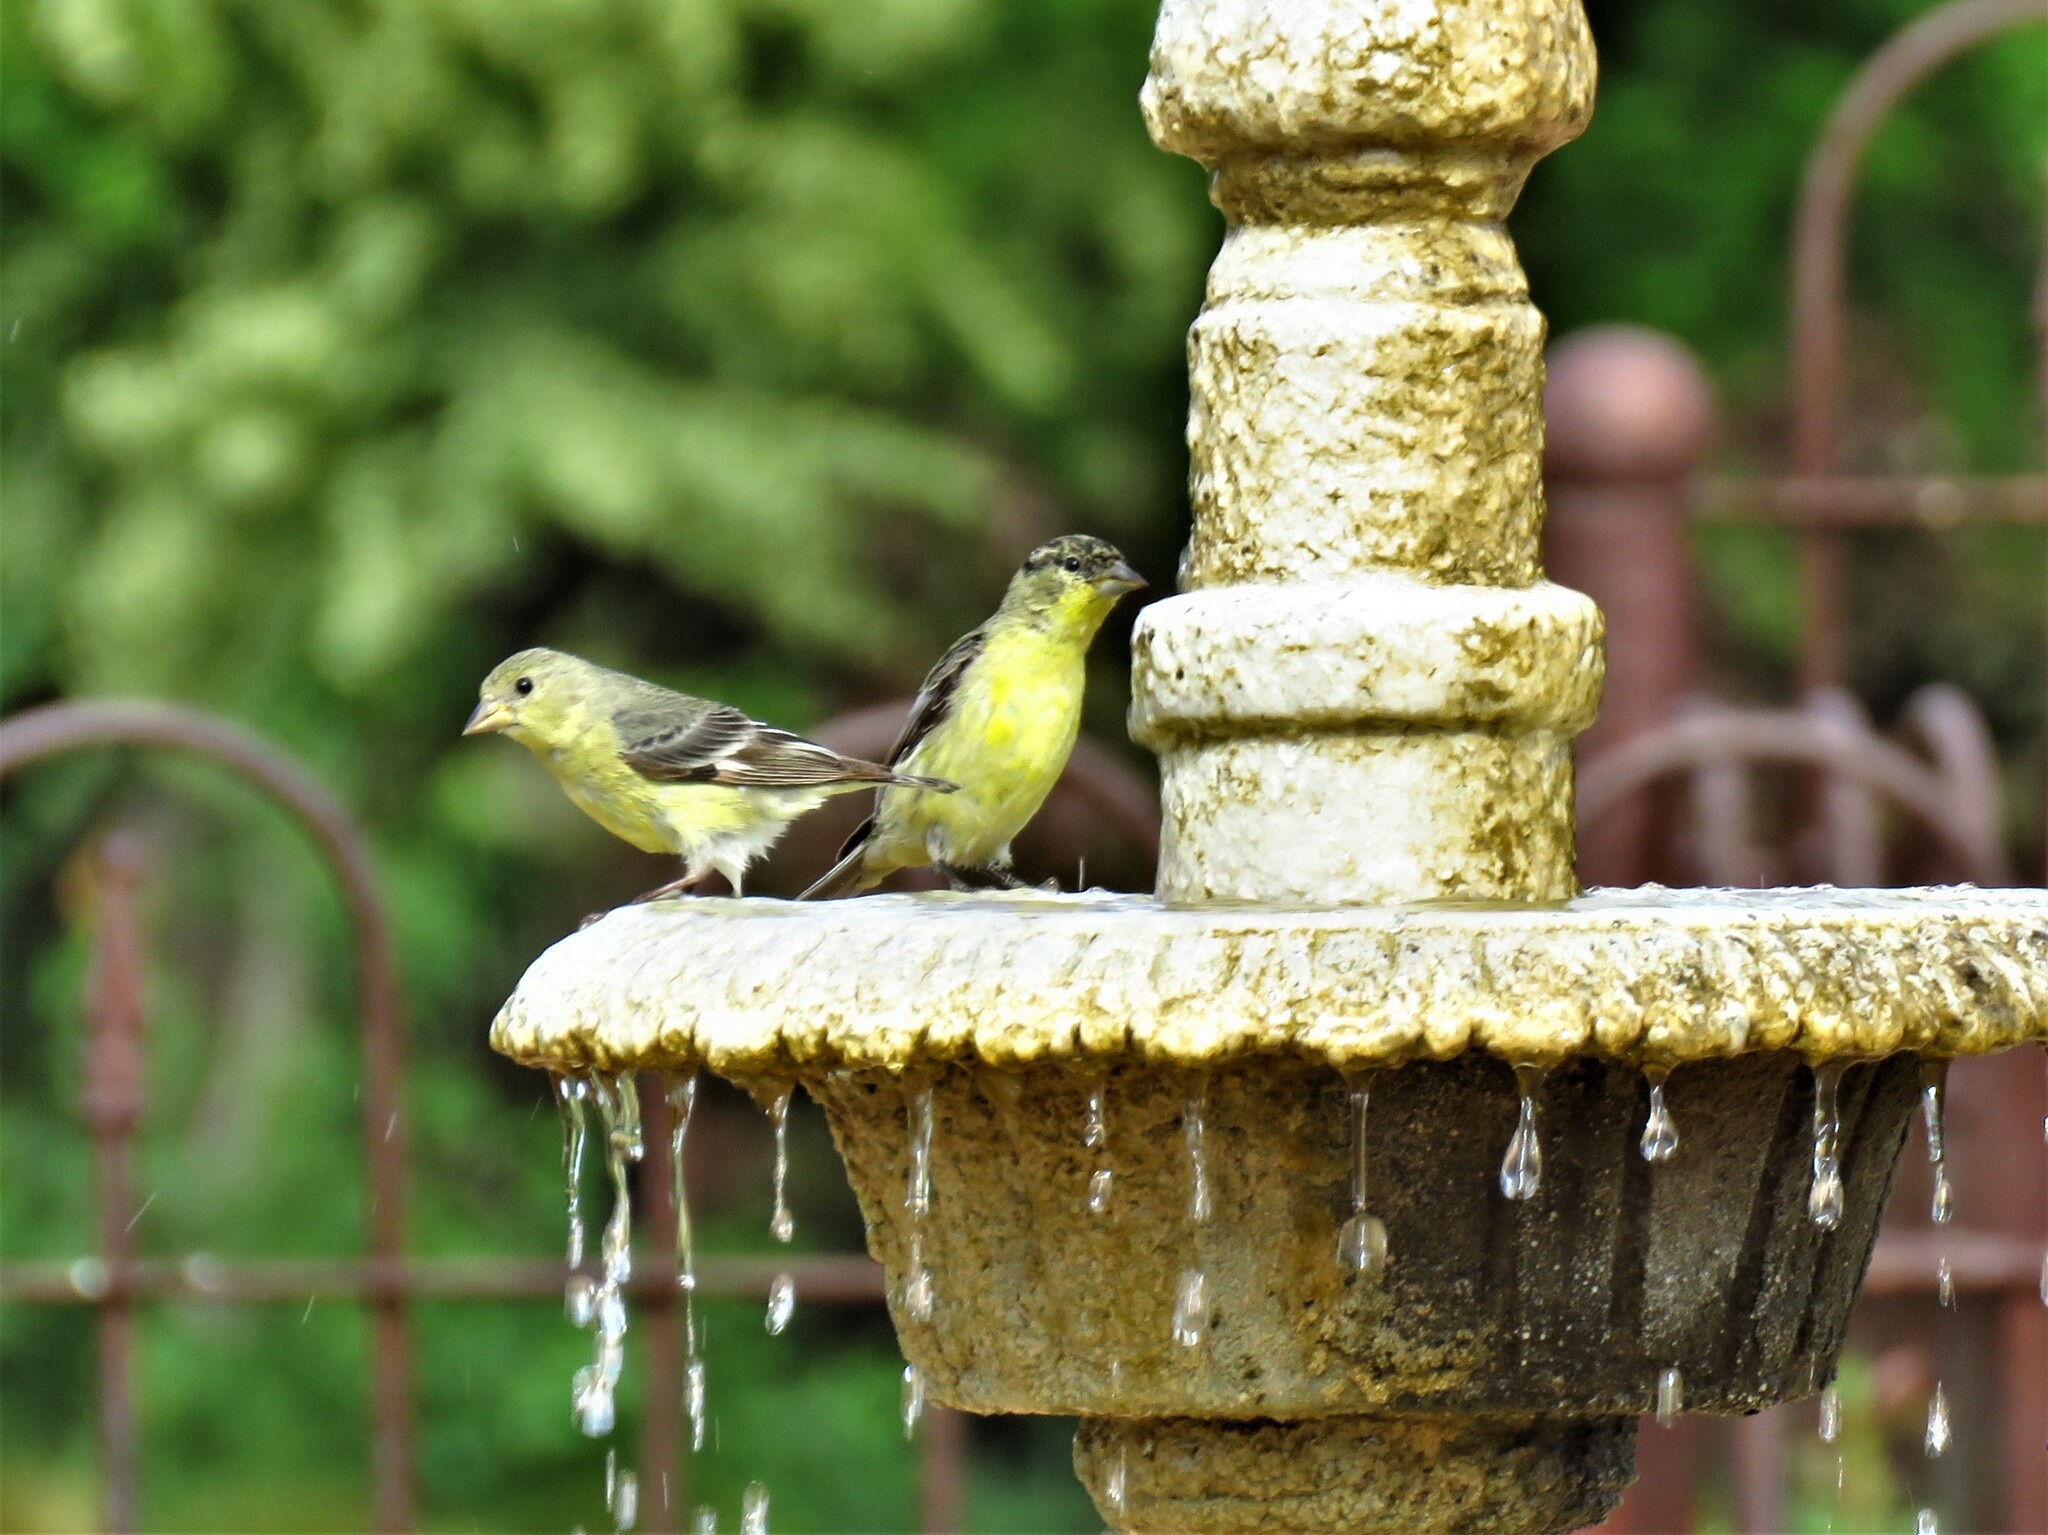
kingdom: Animalia
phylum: Chordata
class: Aves
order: Passeriformes
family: Fringillidae
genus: Spinus
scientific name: Spinus psaltria
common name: Lesser goldfinch
